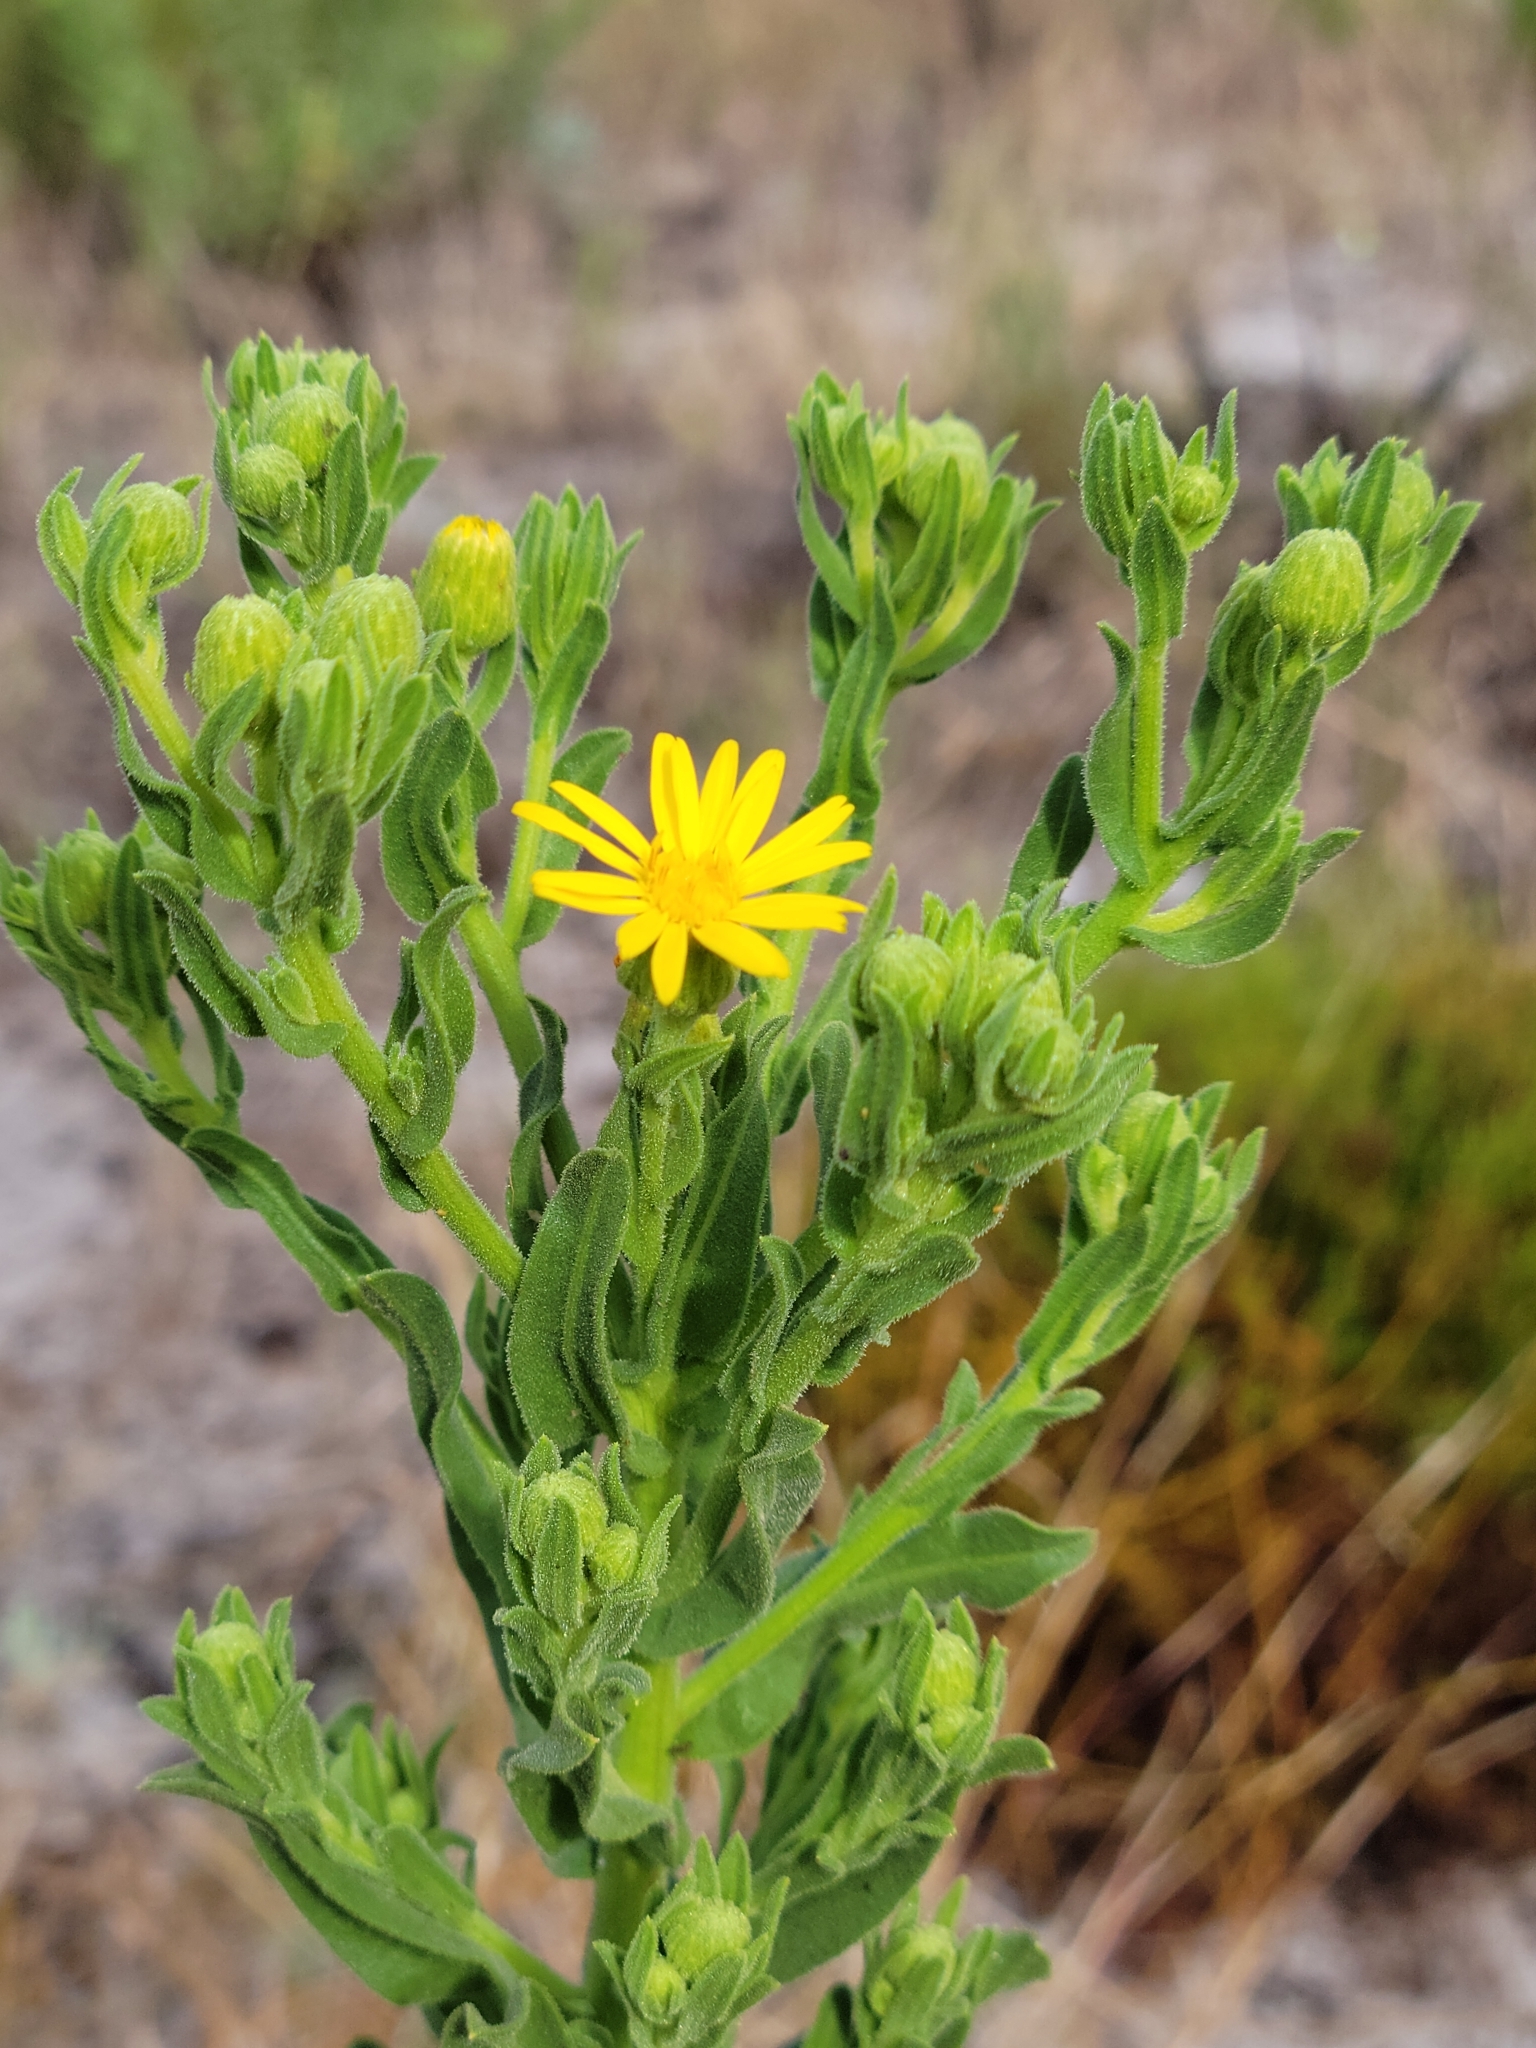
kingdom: Plantae
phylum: Tracheophyta
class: Magnoliopsida
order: Asterales
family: Asteraceae
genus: Chrysopsis
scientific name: Chrysopsis scabrella
